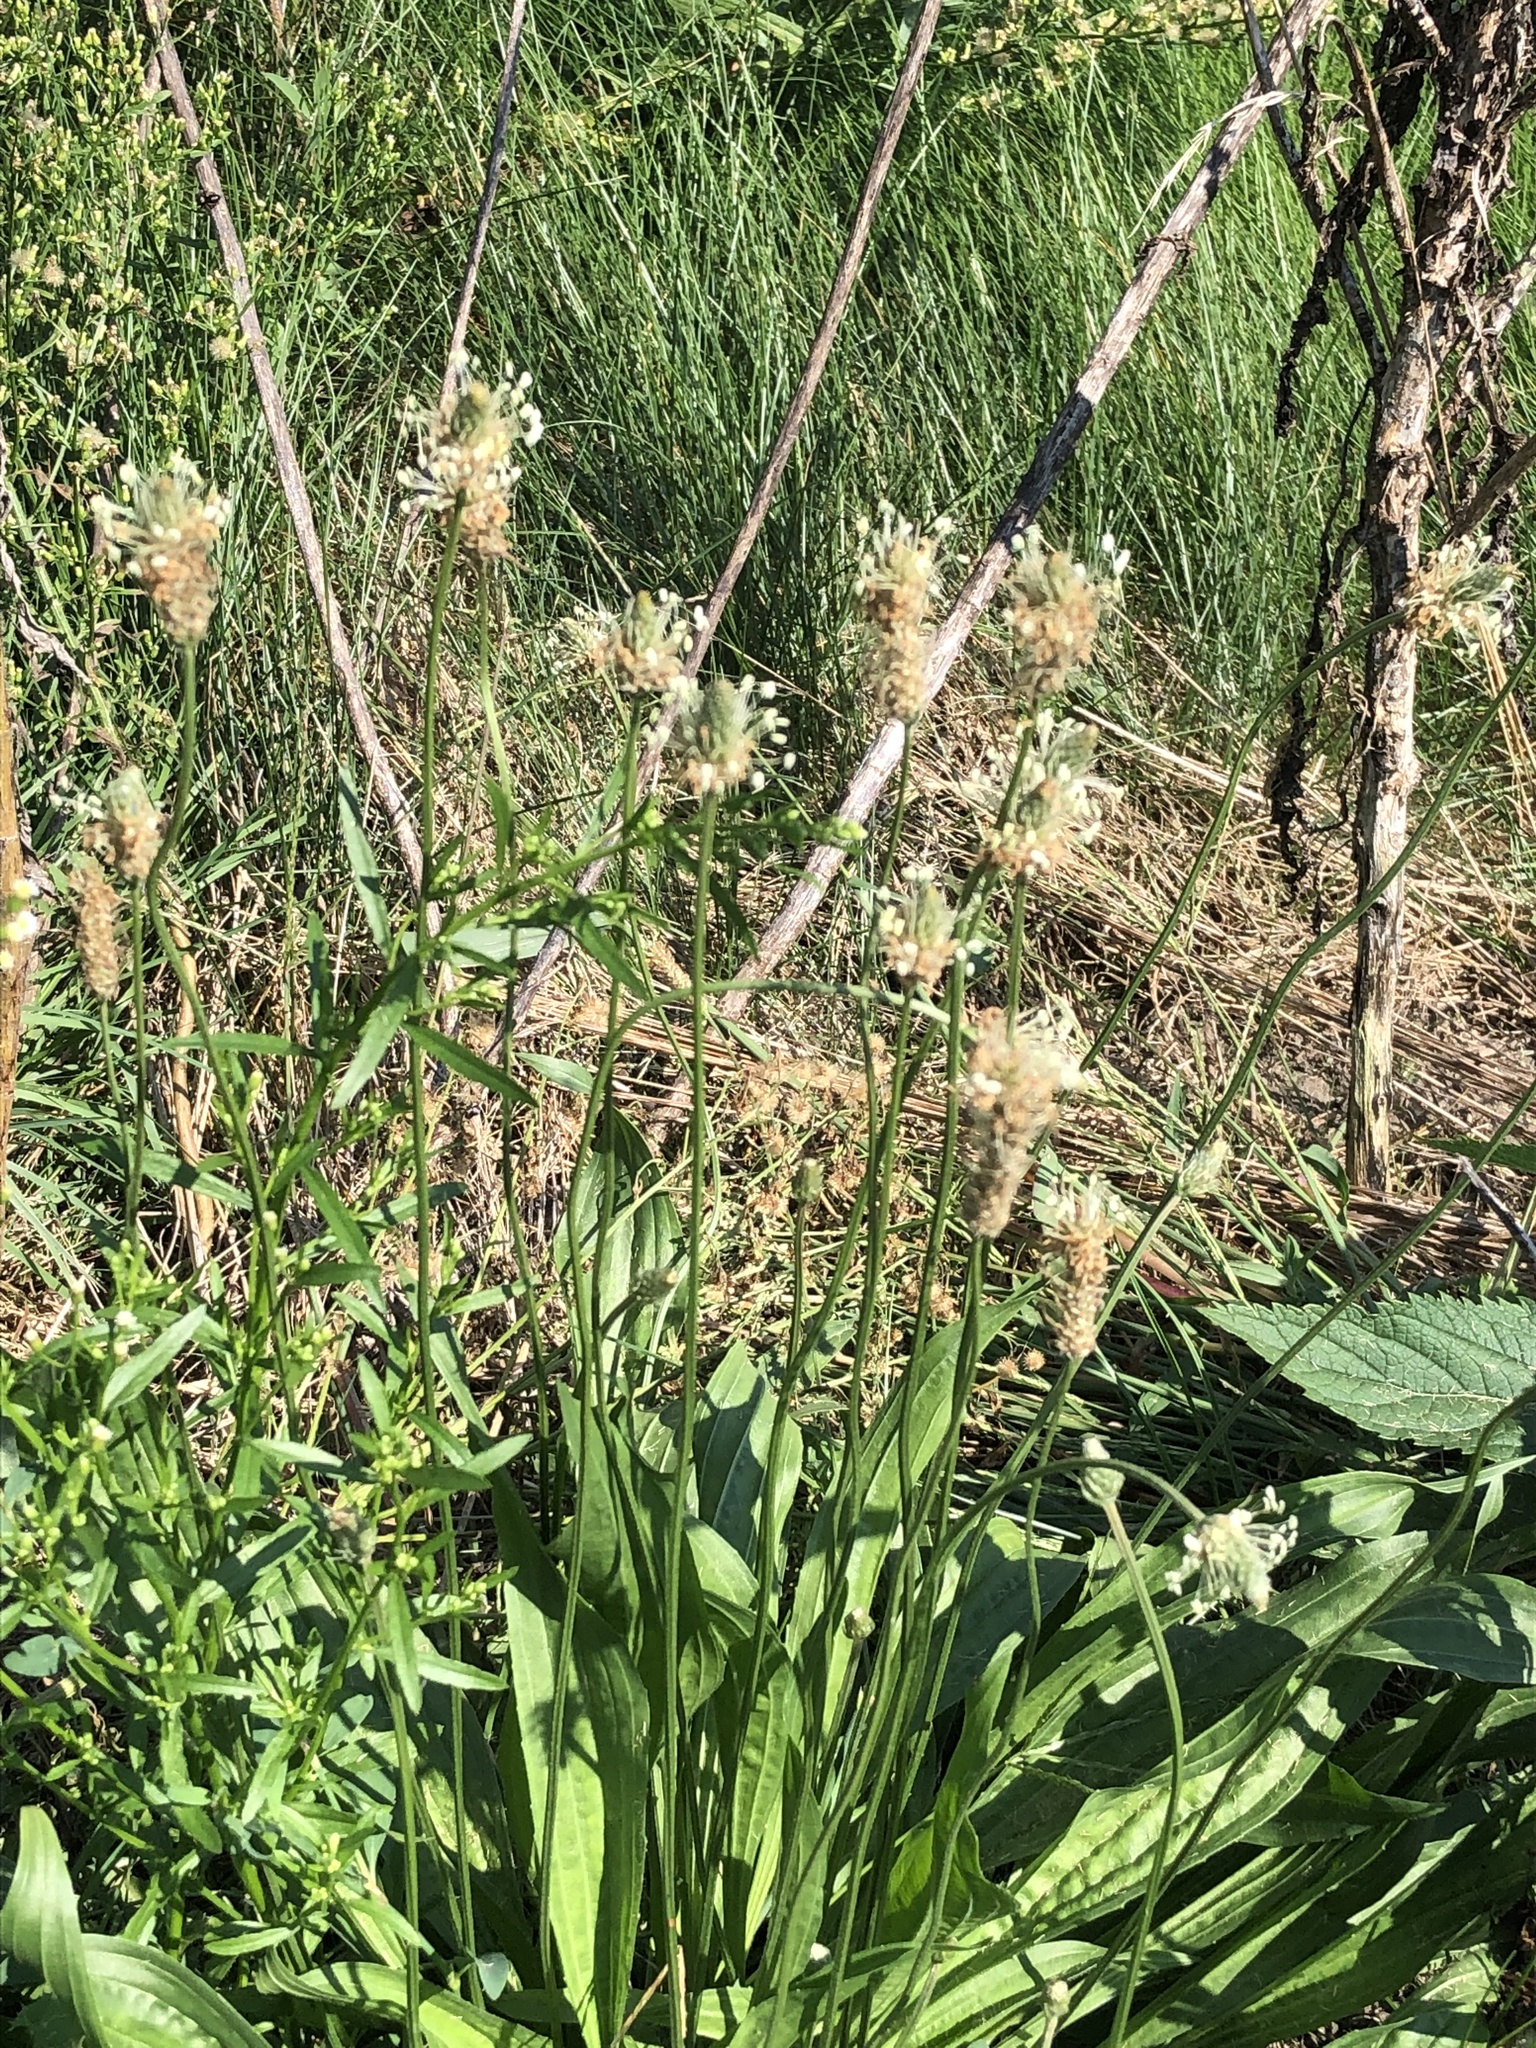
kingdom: Plantae
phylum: Tracheophyta
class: Magnoliopsida
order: Lamiales
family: Plantaginaceae
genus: Plantago
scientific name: Plantago lanceolata
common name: Ribwort plantain
